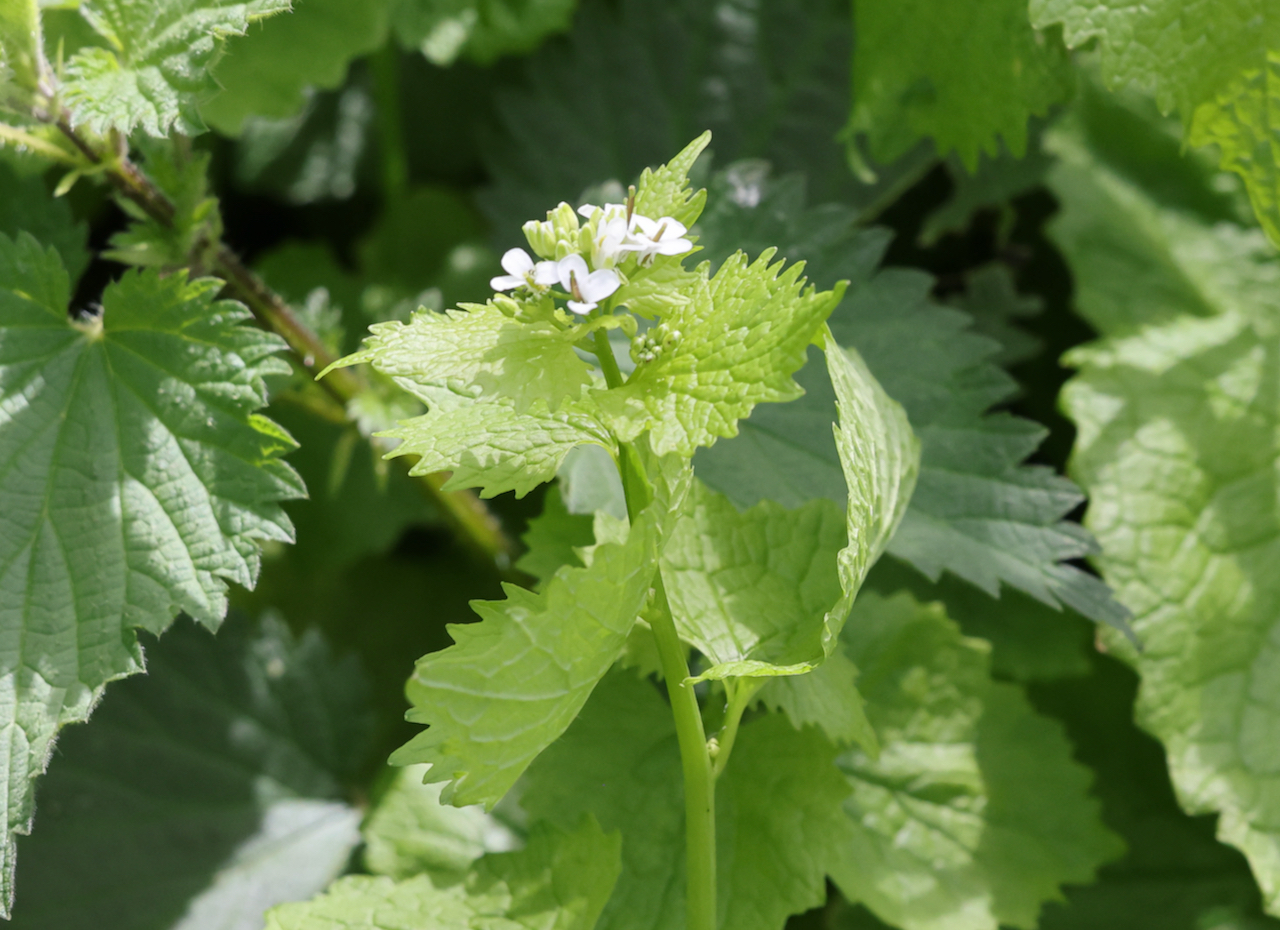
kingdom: Plantae
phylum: Tracheophyta
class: Magnoliopsida
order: Brassicales
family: Brassicaceae
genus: Alliaria
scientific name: Alliaria petiolata
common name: Garlic mustard
